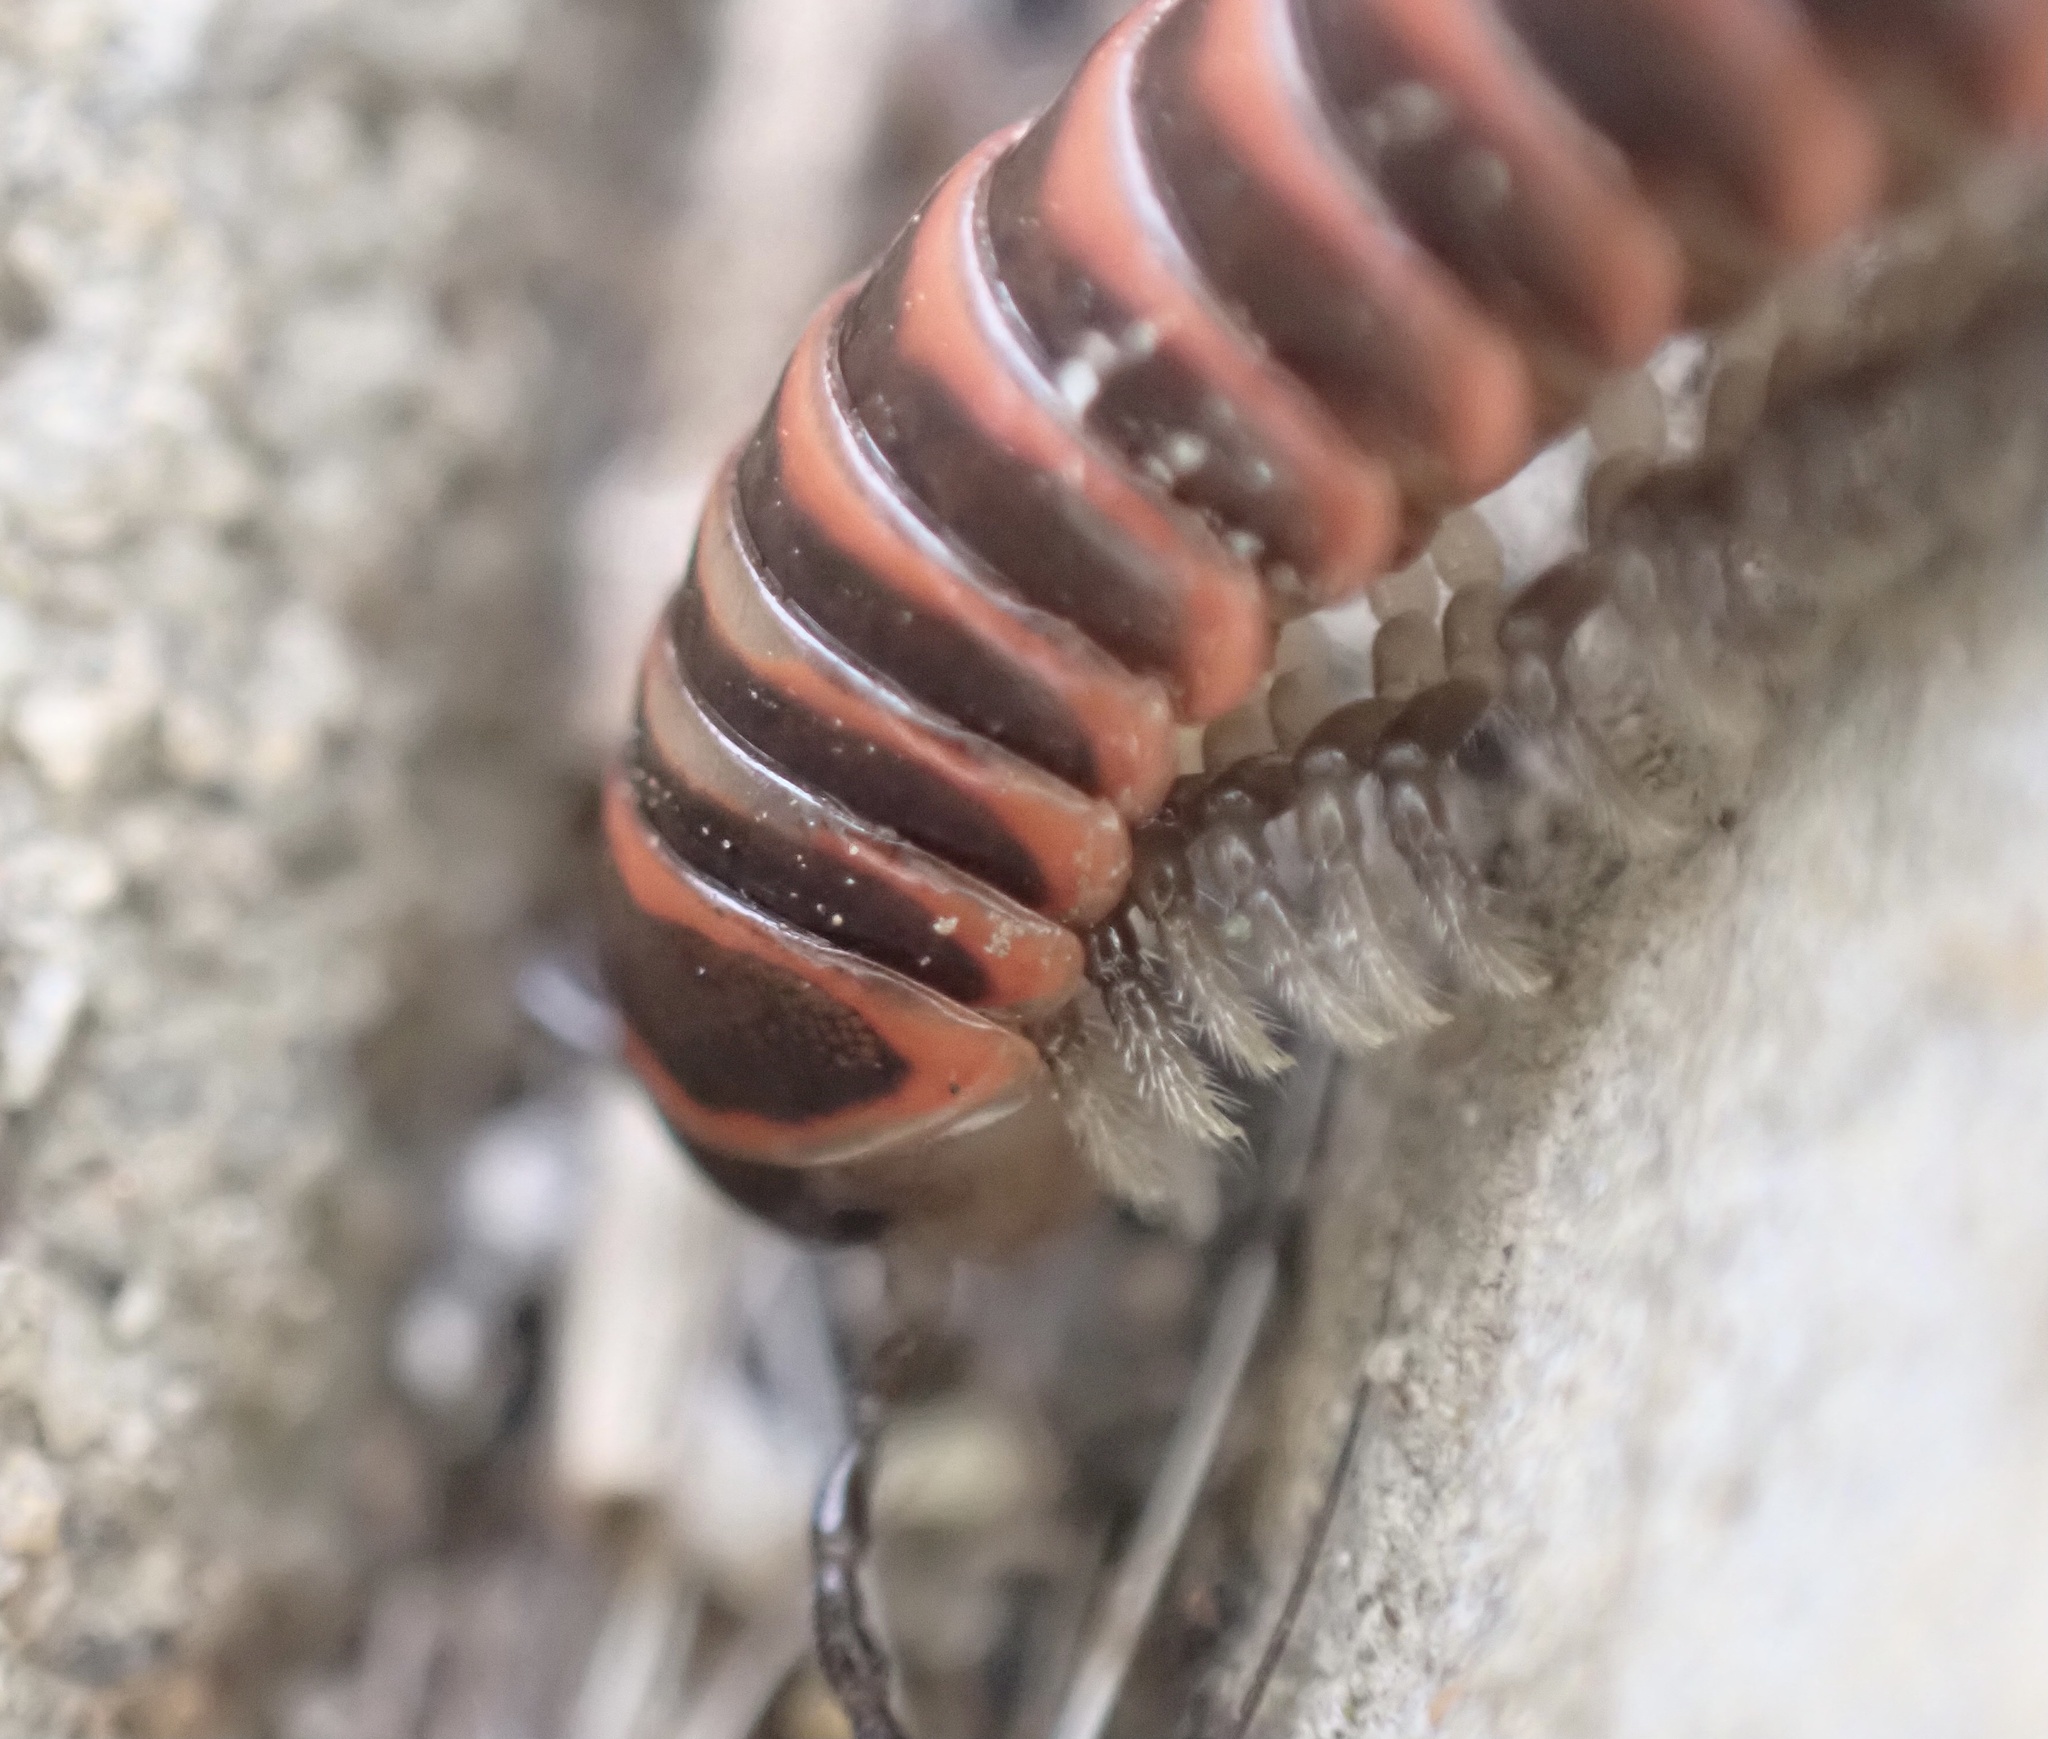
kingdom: Animalia
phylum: Arthropoda
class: Diplopoda
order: Polydesmida
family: Xystodesmidae
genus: Oenomaea
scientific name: Oenomaea pulchella
